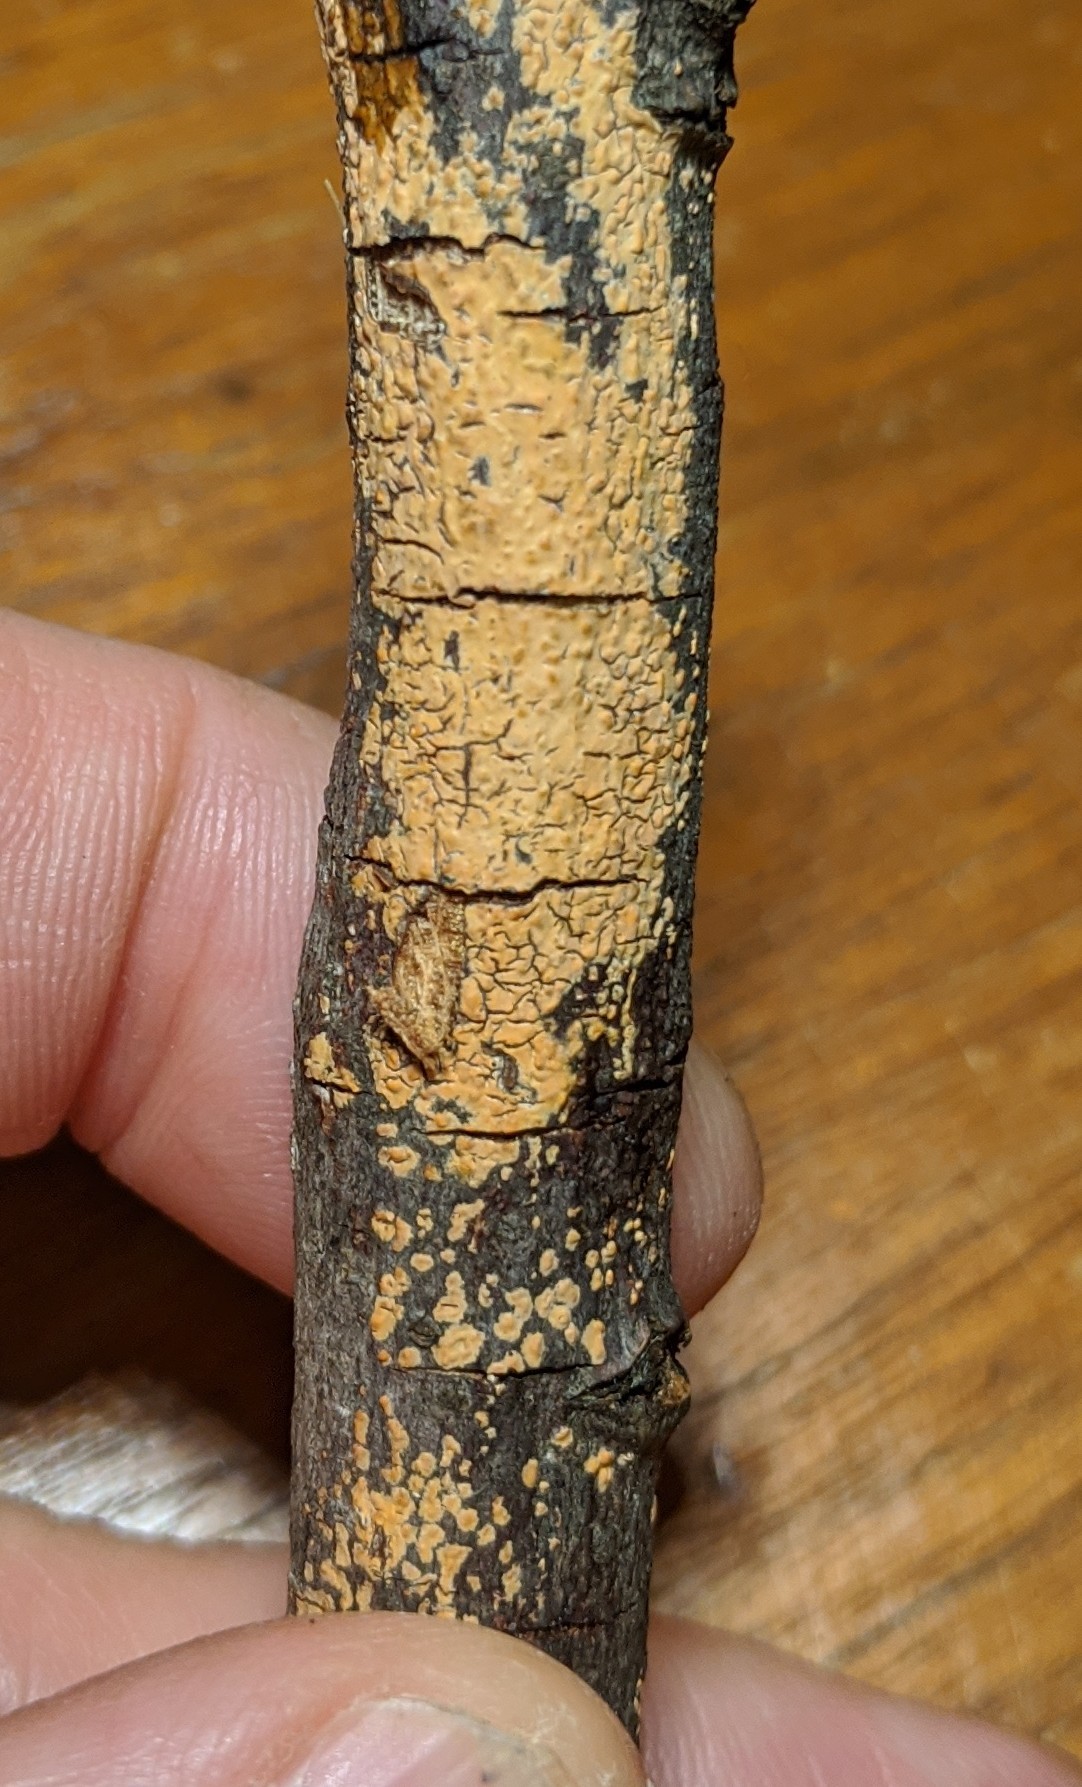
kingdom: Fungi
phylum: Basidiomycota
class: Agaricomycetes
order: Russulales
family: Peniophoraceae
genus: Peniophora
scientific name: Peniophora incarnata
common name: Rosy crust
